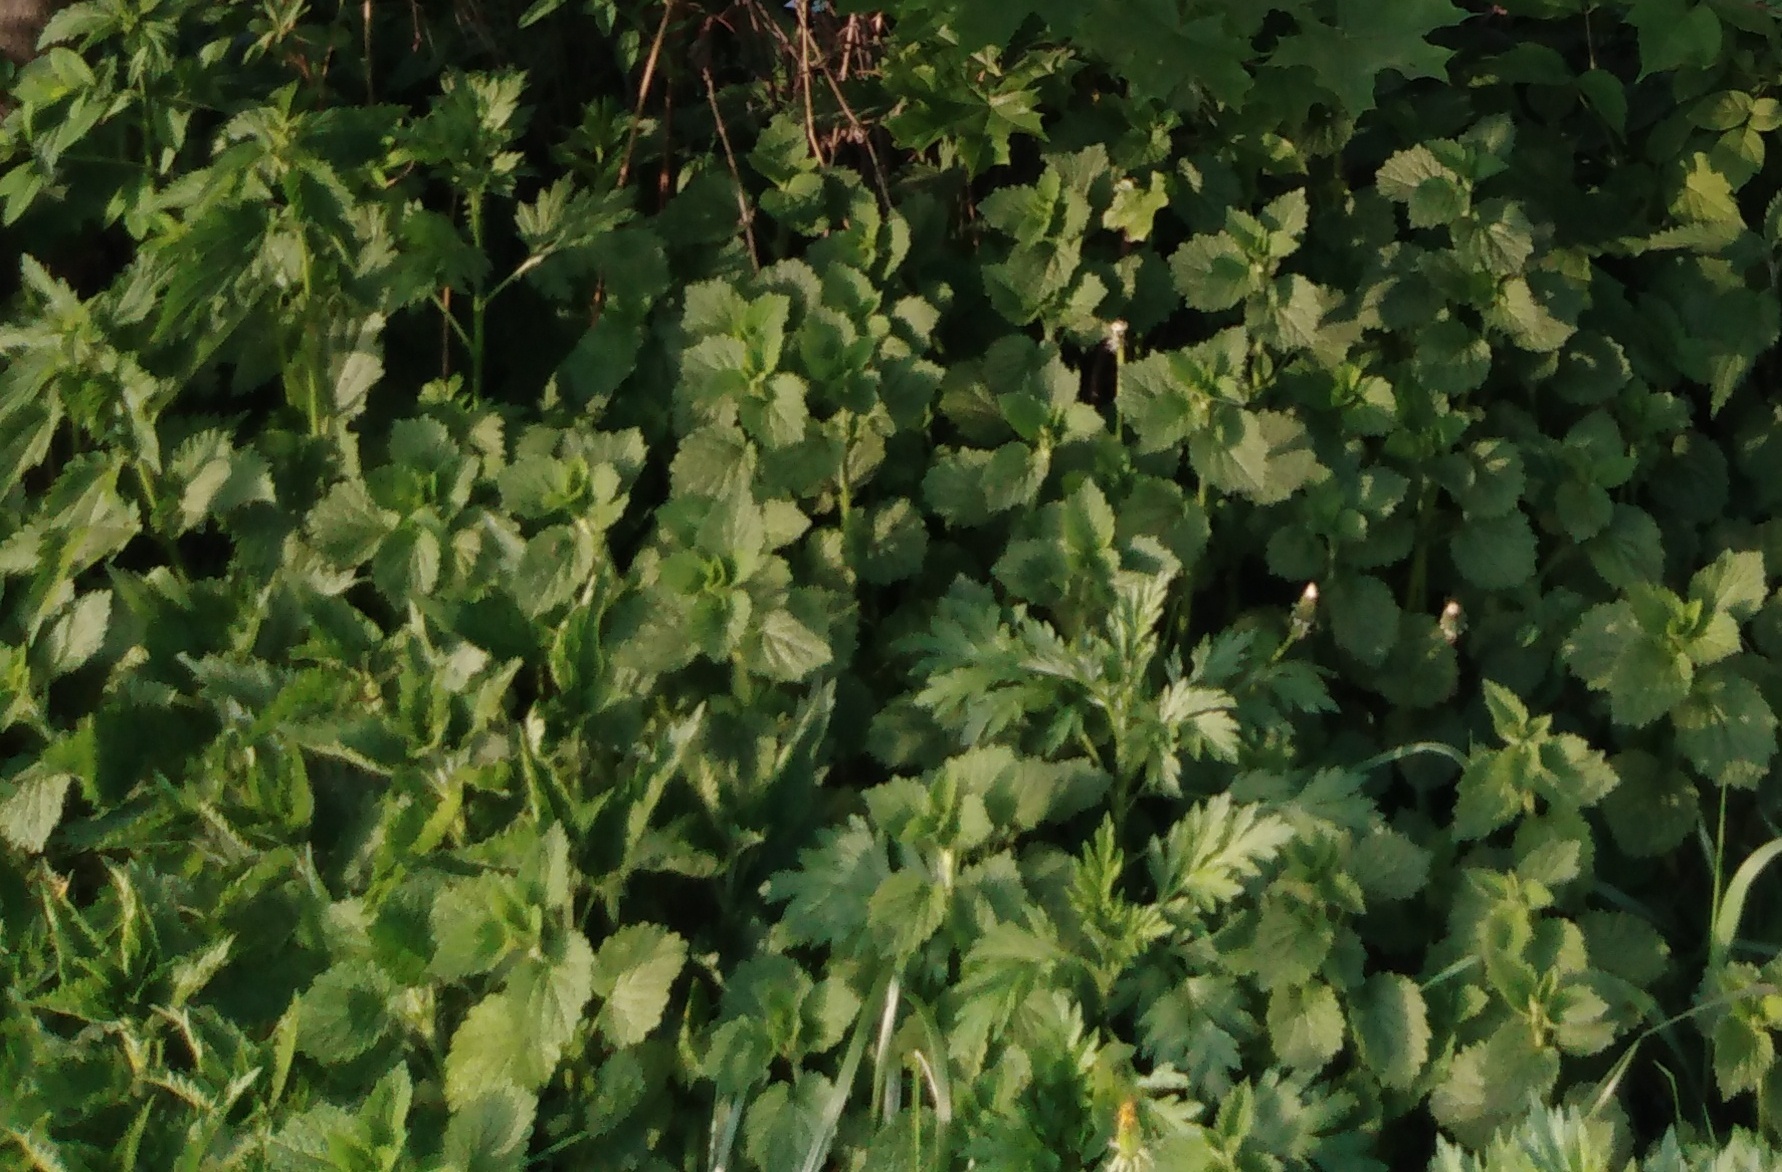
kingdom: Plantae
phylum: Tracheophyta
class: Magnoliopsida
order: Brassicales
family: Brassicaceae
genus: Alliaria
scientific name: Alliaria petiolata
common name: Garlic mustard
